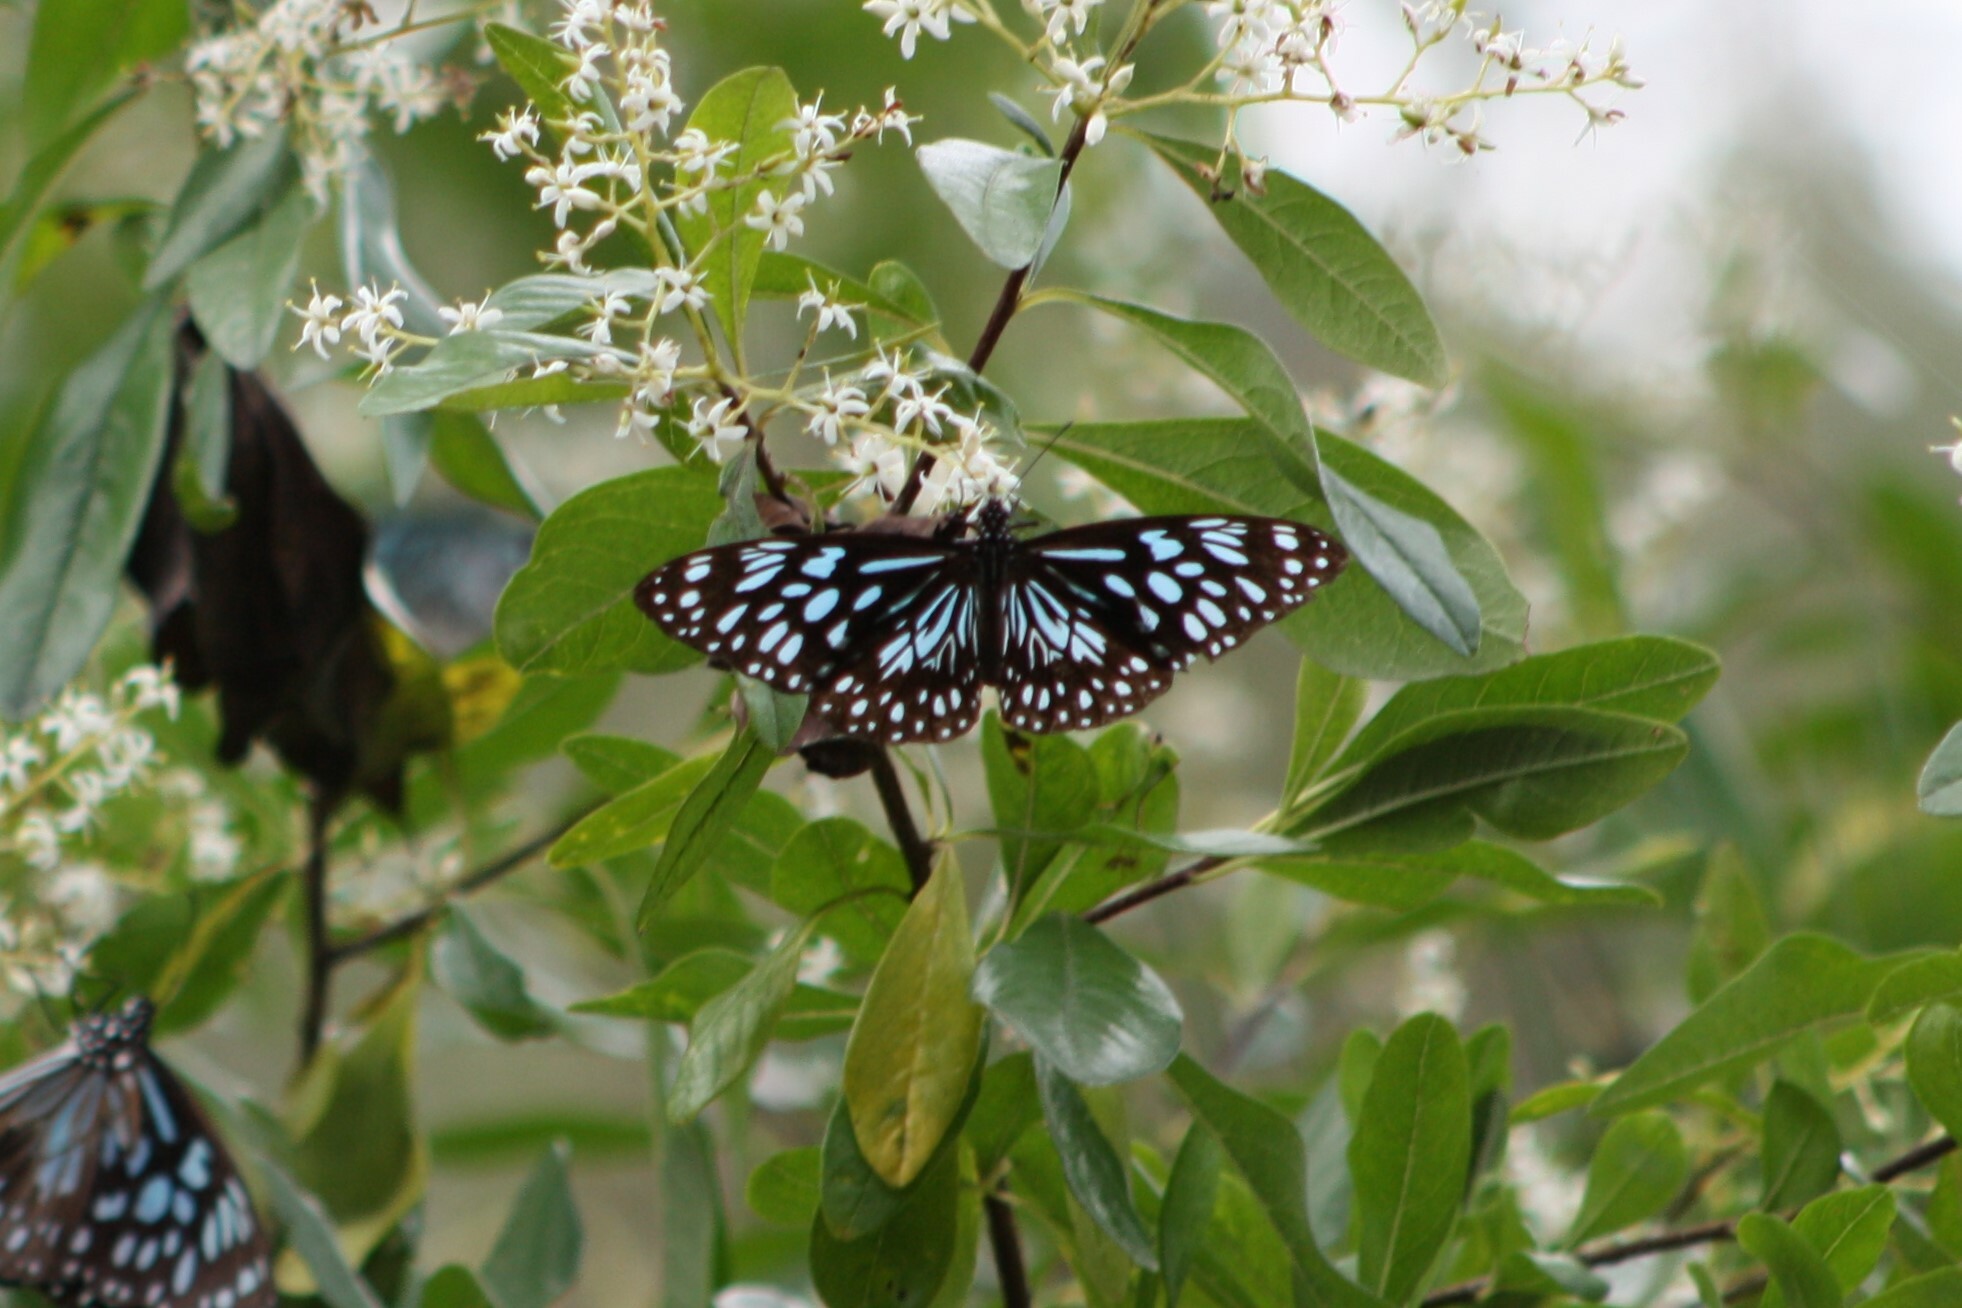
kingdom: Animalia
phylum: Arthropoda
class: Insecta
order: Lepidoptera
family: Nymphalidae
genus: Tirumala
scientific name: Tirumala hamata
